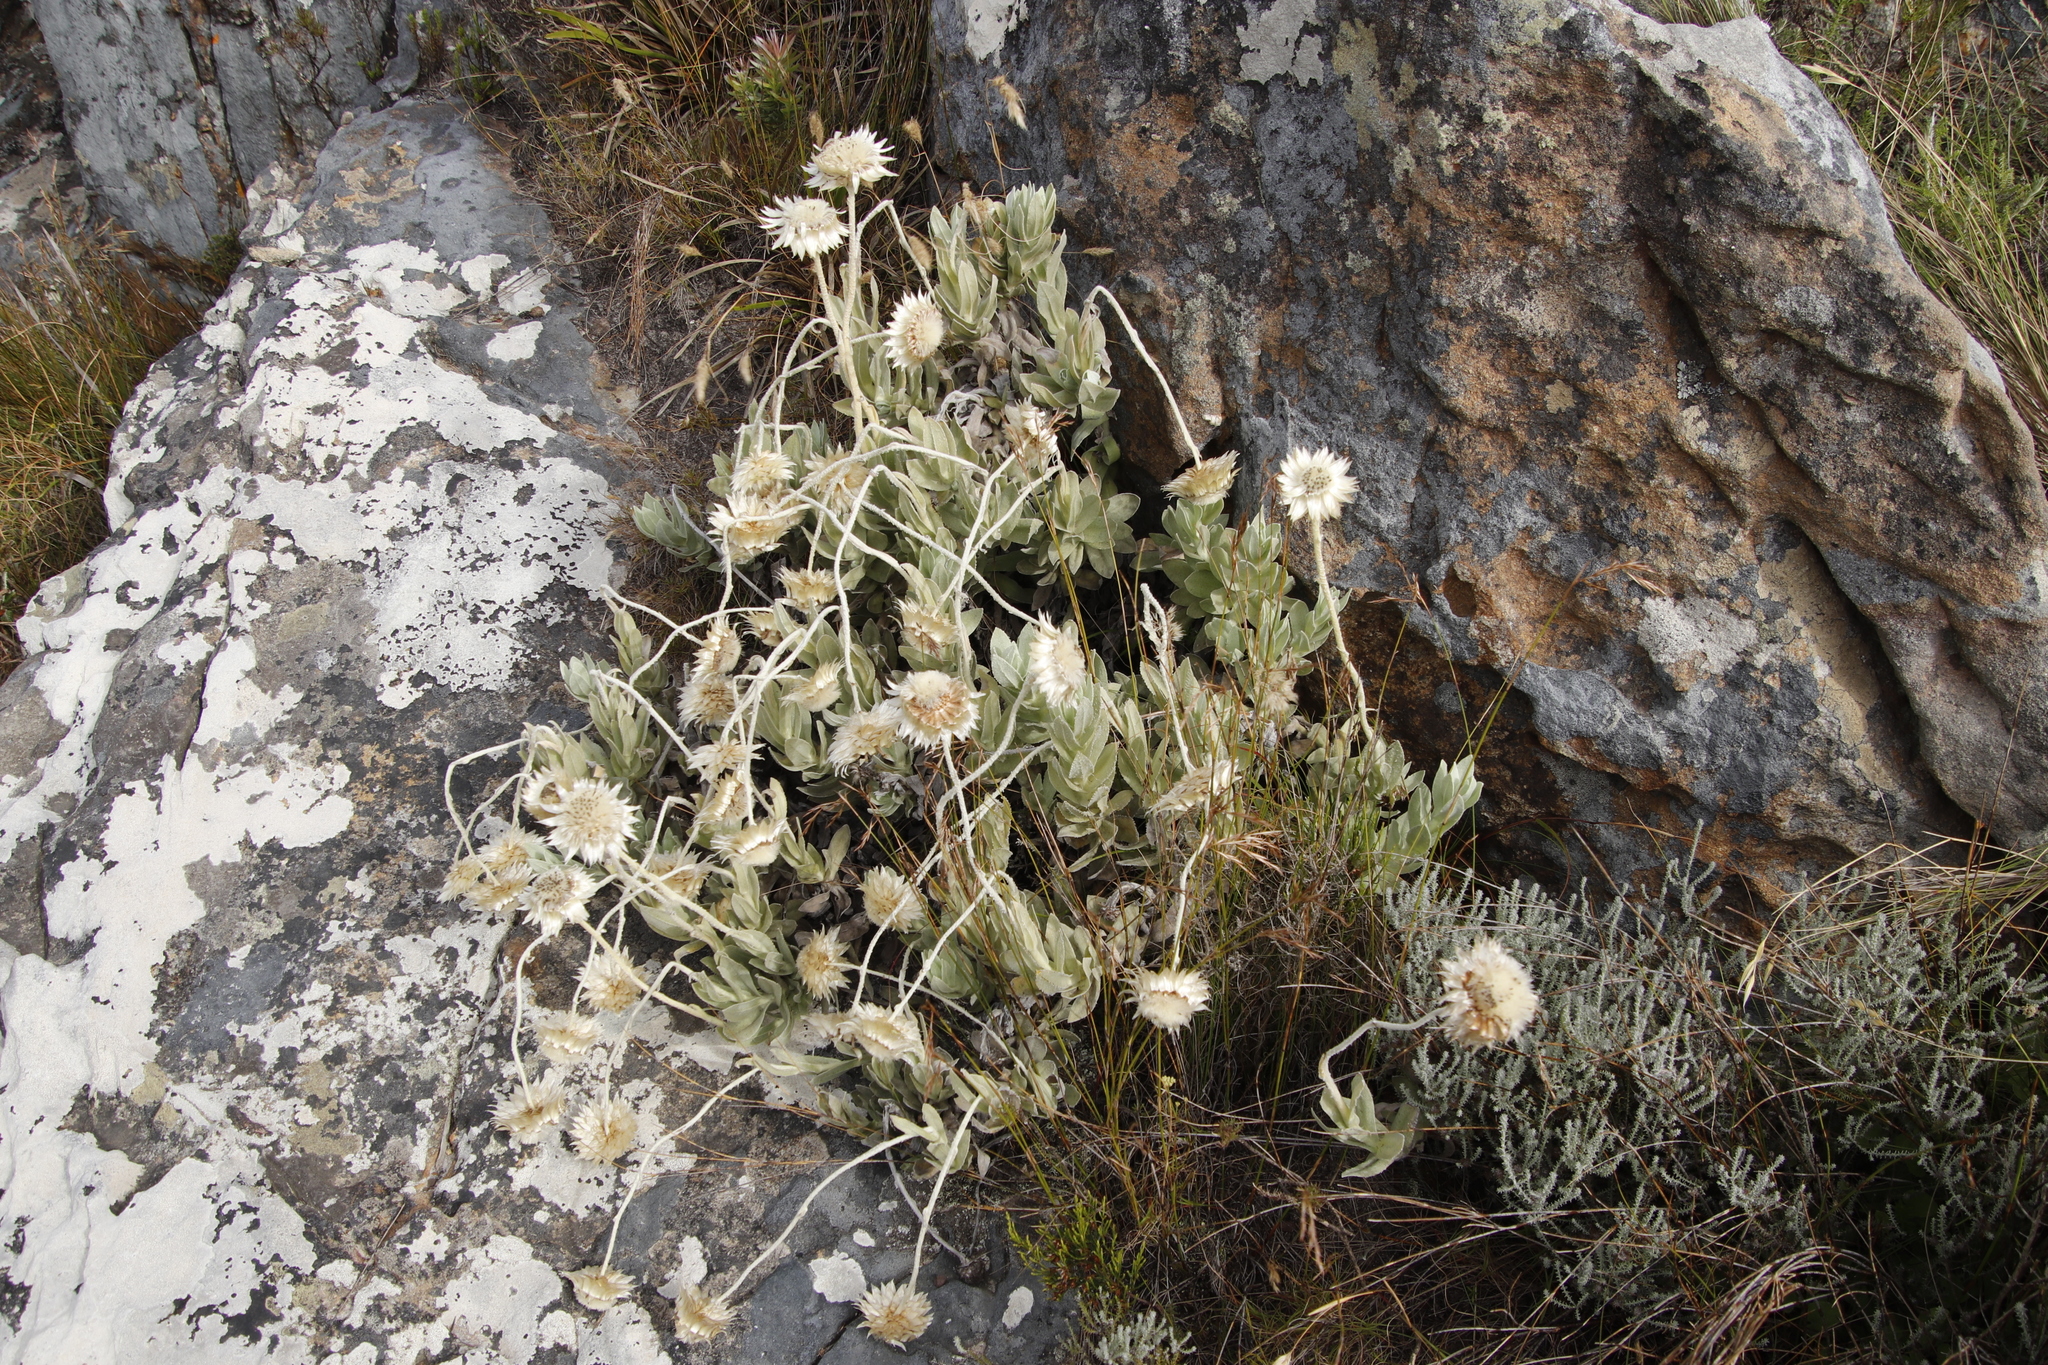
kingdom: Plantae
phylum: Tracheophyta
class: Magnoliopsida
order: Asterales
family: Asteraceae
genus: Syncarpha
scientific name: Syncarpha speciosissima
